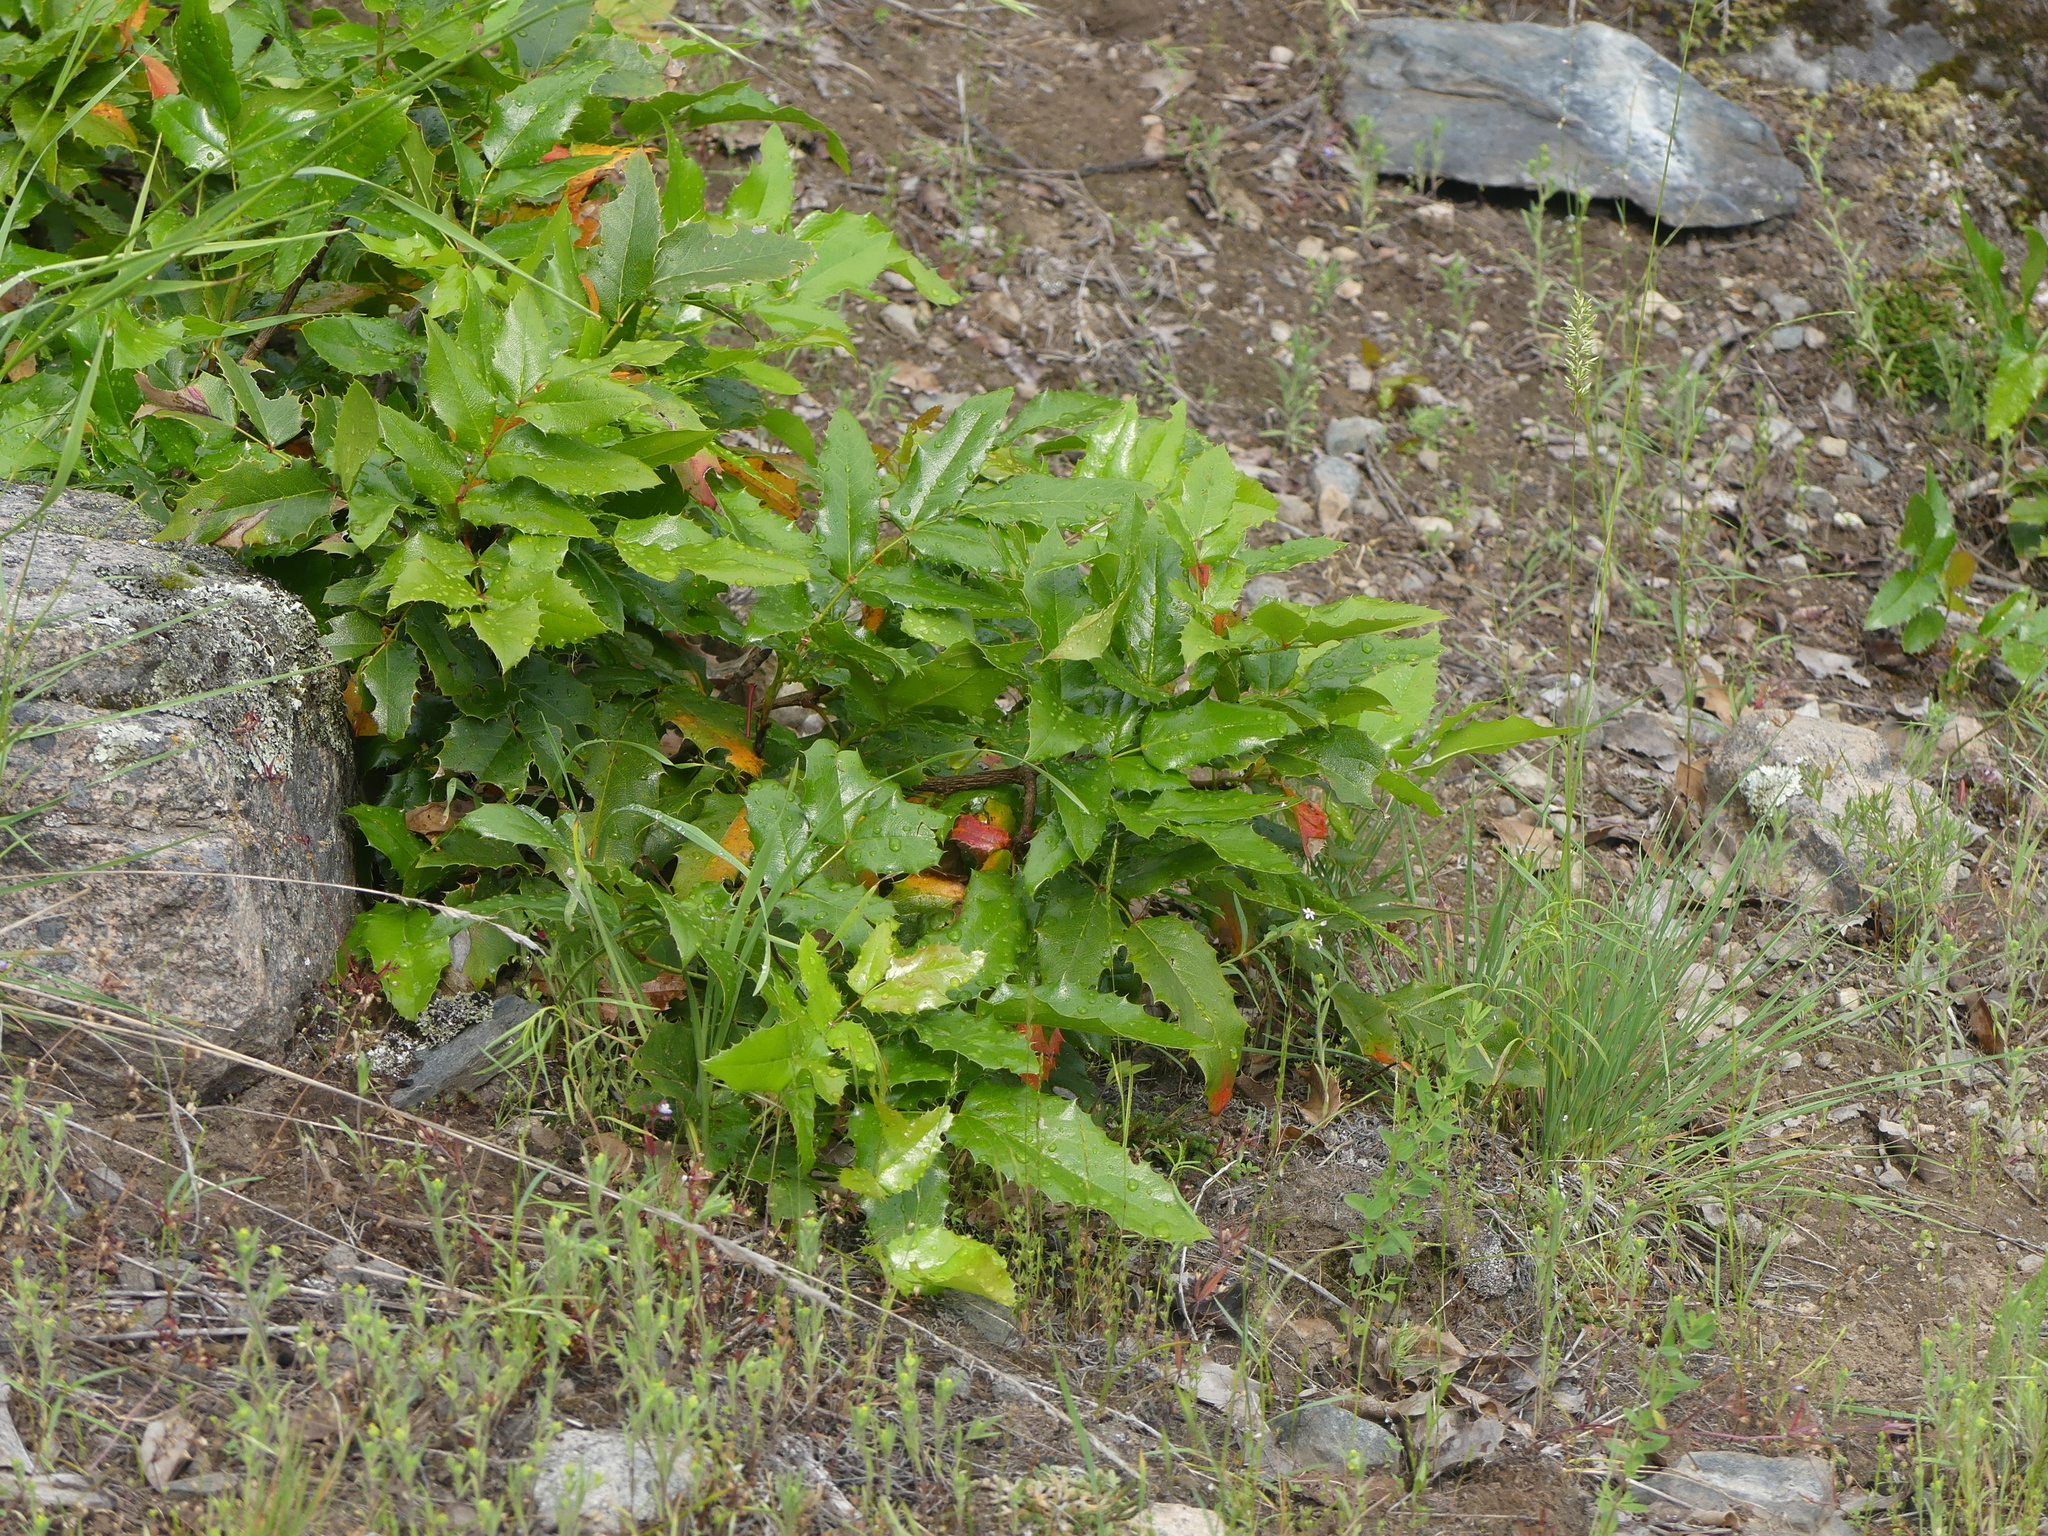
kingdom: Plantae
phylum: Tracheophyta
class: Magnoliopsida
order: Ranunculales
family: Berberidaceae
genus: Mahonia
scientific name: Mahonia aquifolium
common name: Oregon-grape
